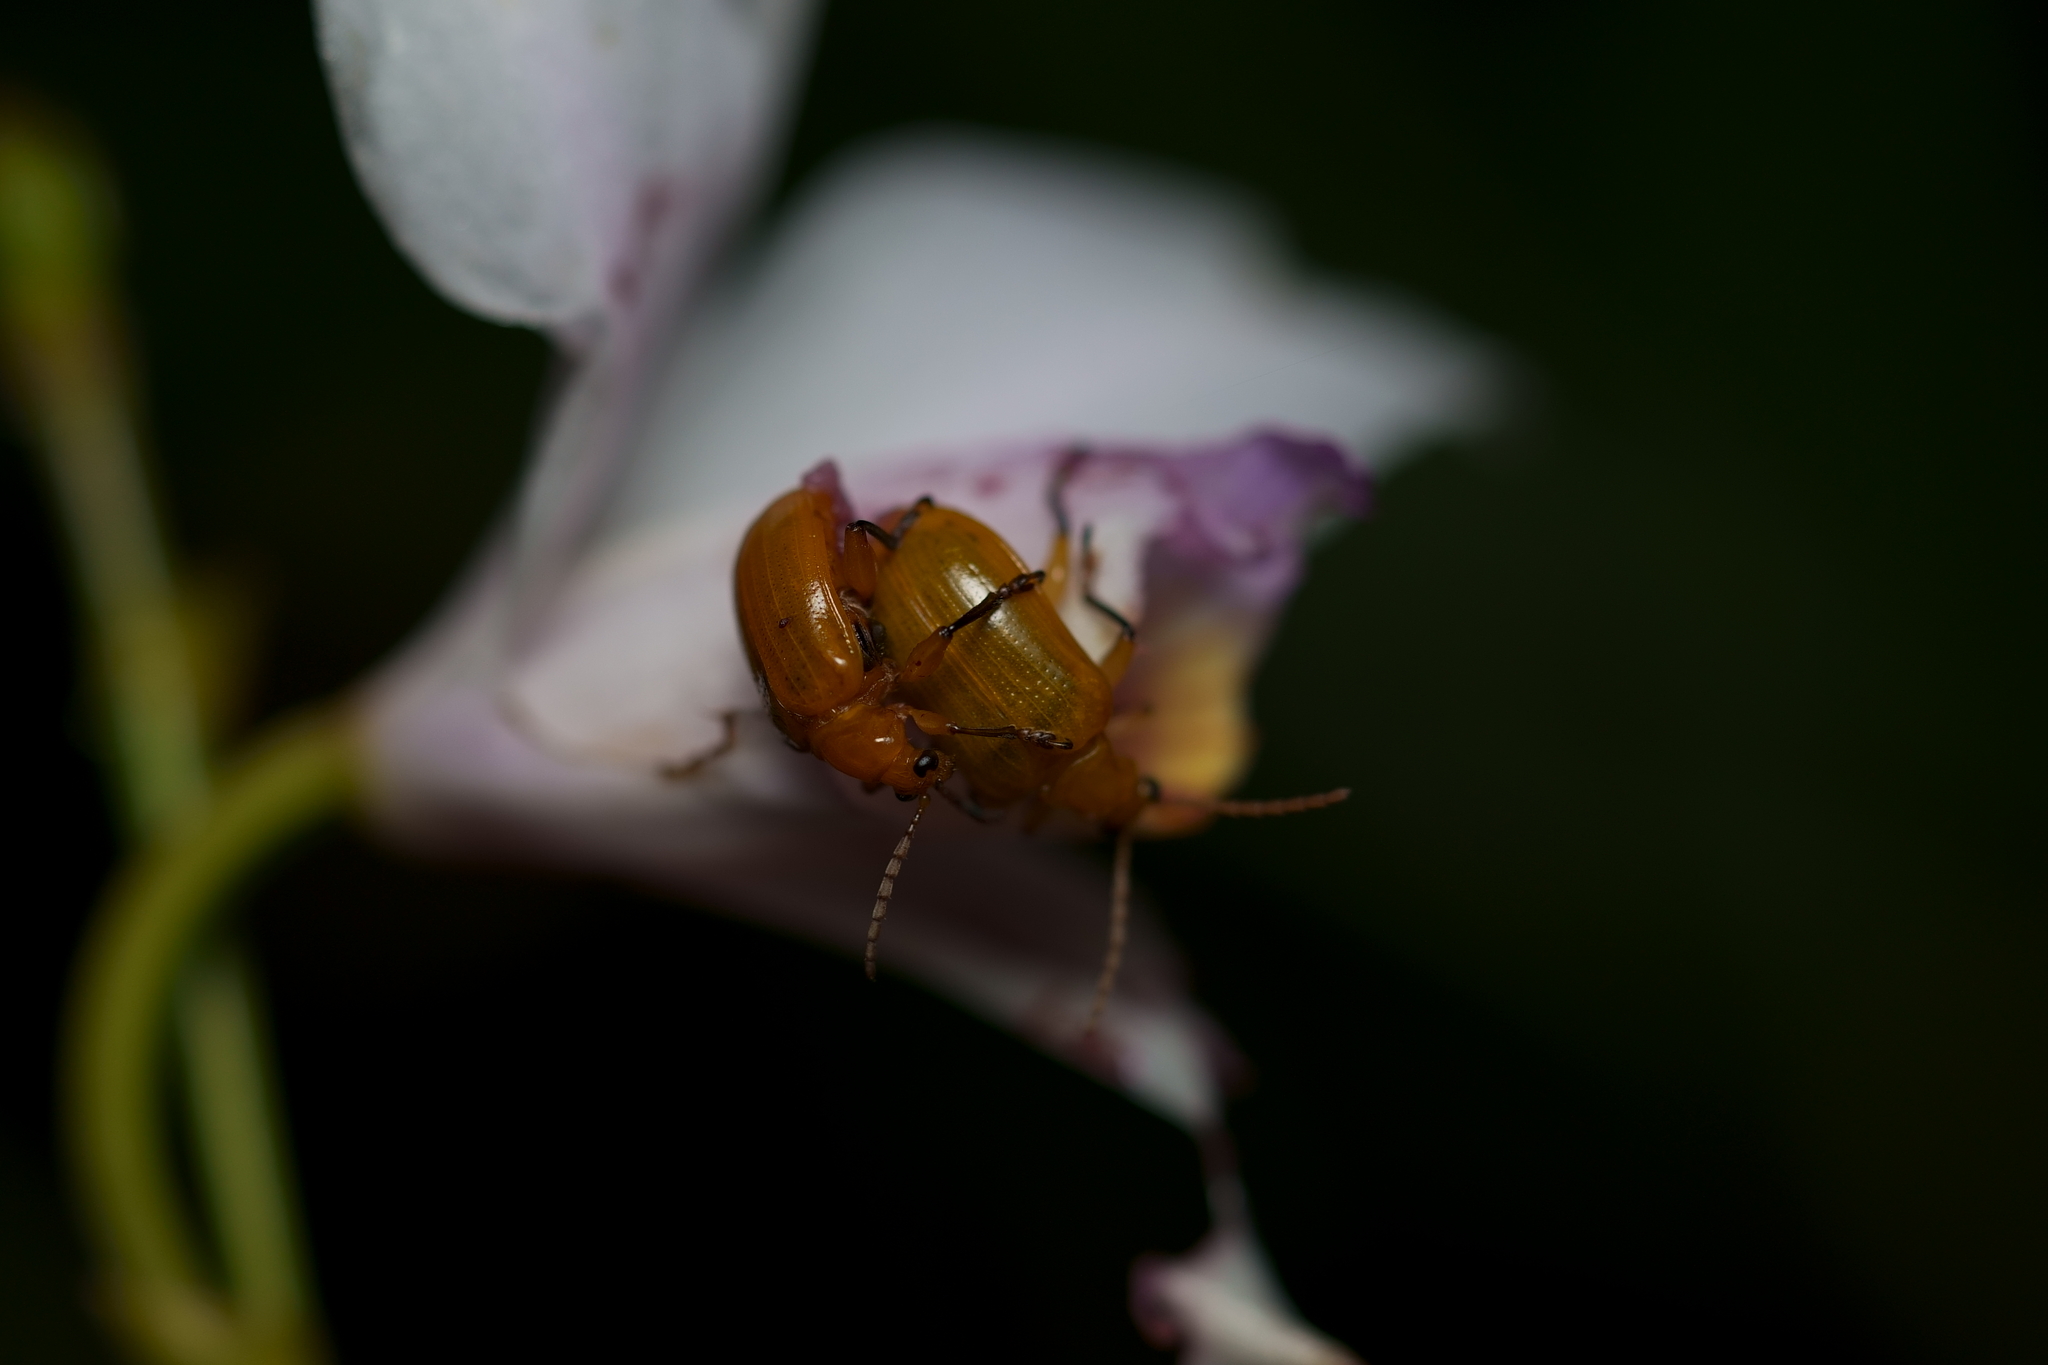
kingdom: Animalia
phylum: Arthropoda
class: Insecta
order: Coleoptera
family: Chrysomelidae
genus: Baliosus
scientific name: Baliosus pectoralis
